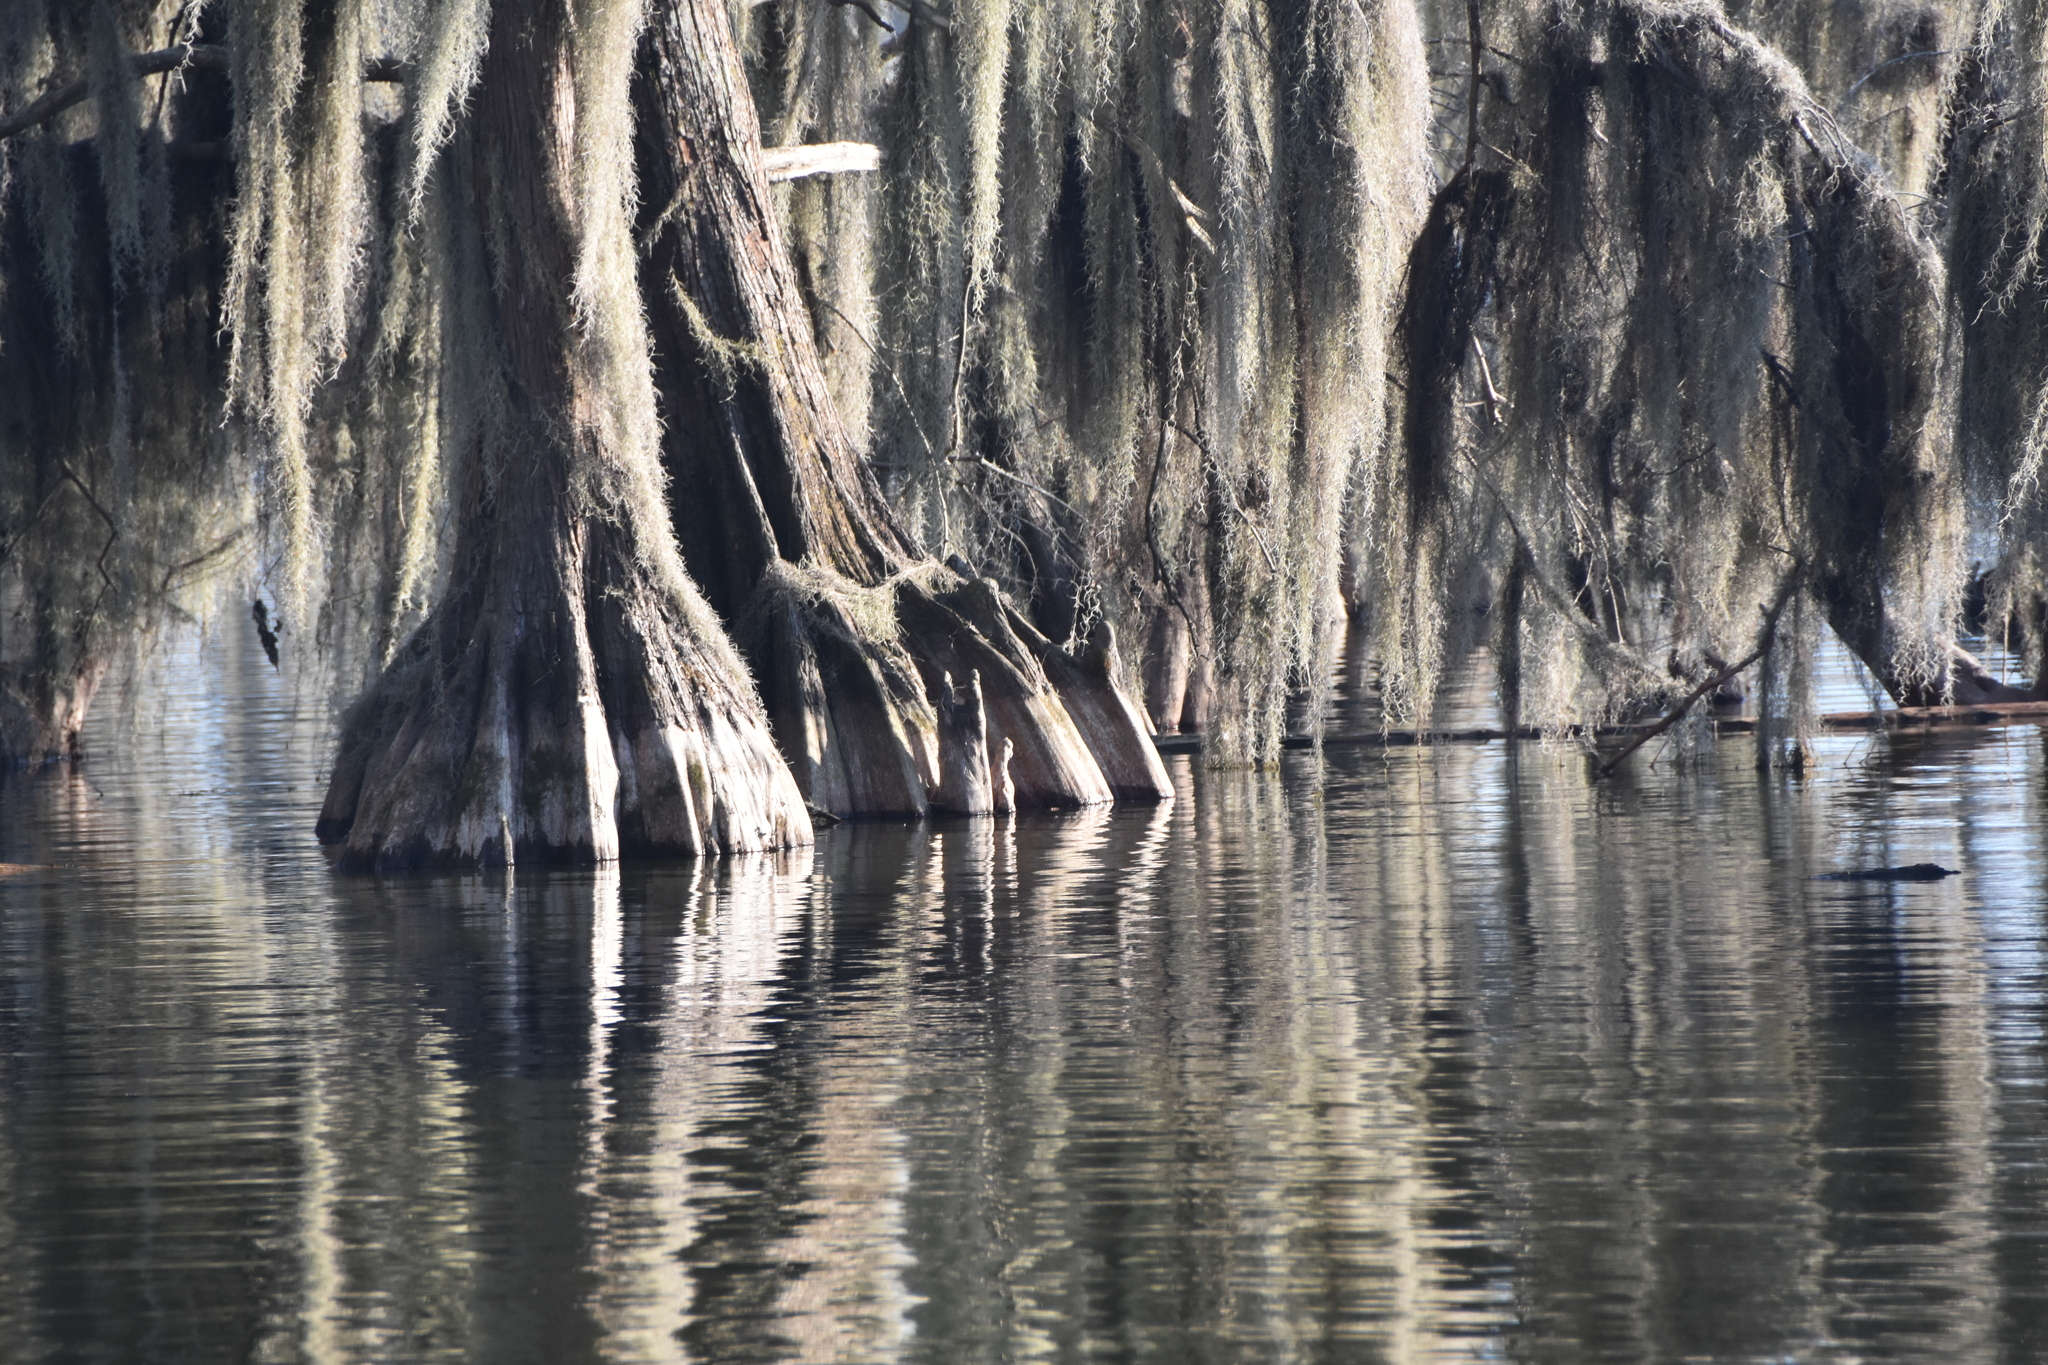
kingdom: Plantae
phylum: Tracheophyta
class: Liliopsida
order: Poales
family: Bromeliaceae
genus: Tillandsia
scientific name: Tillandsia usneoides
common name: Spanish moss
